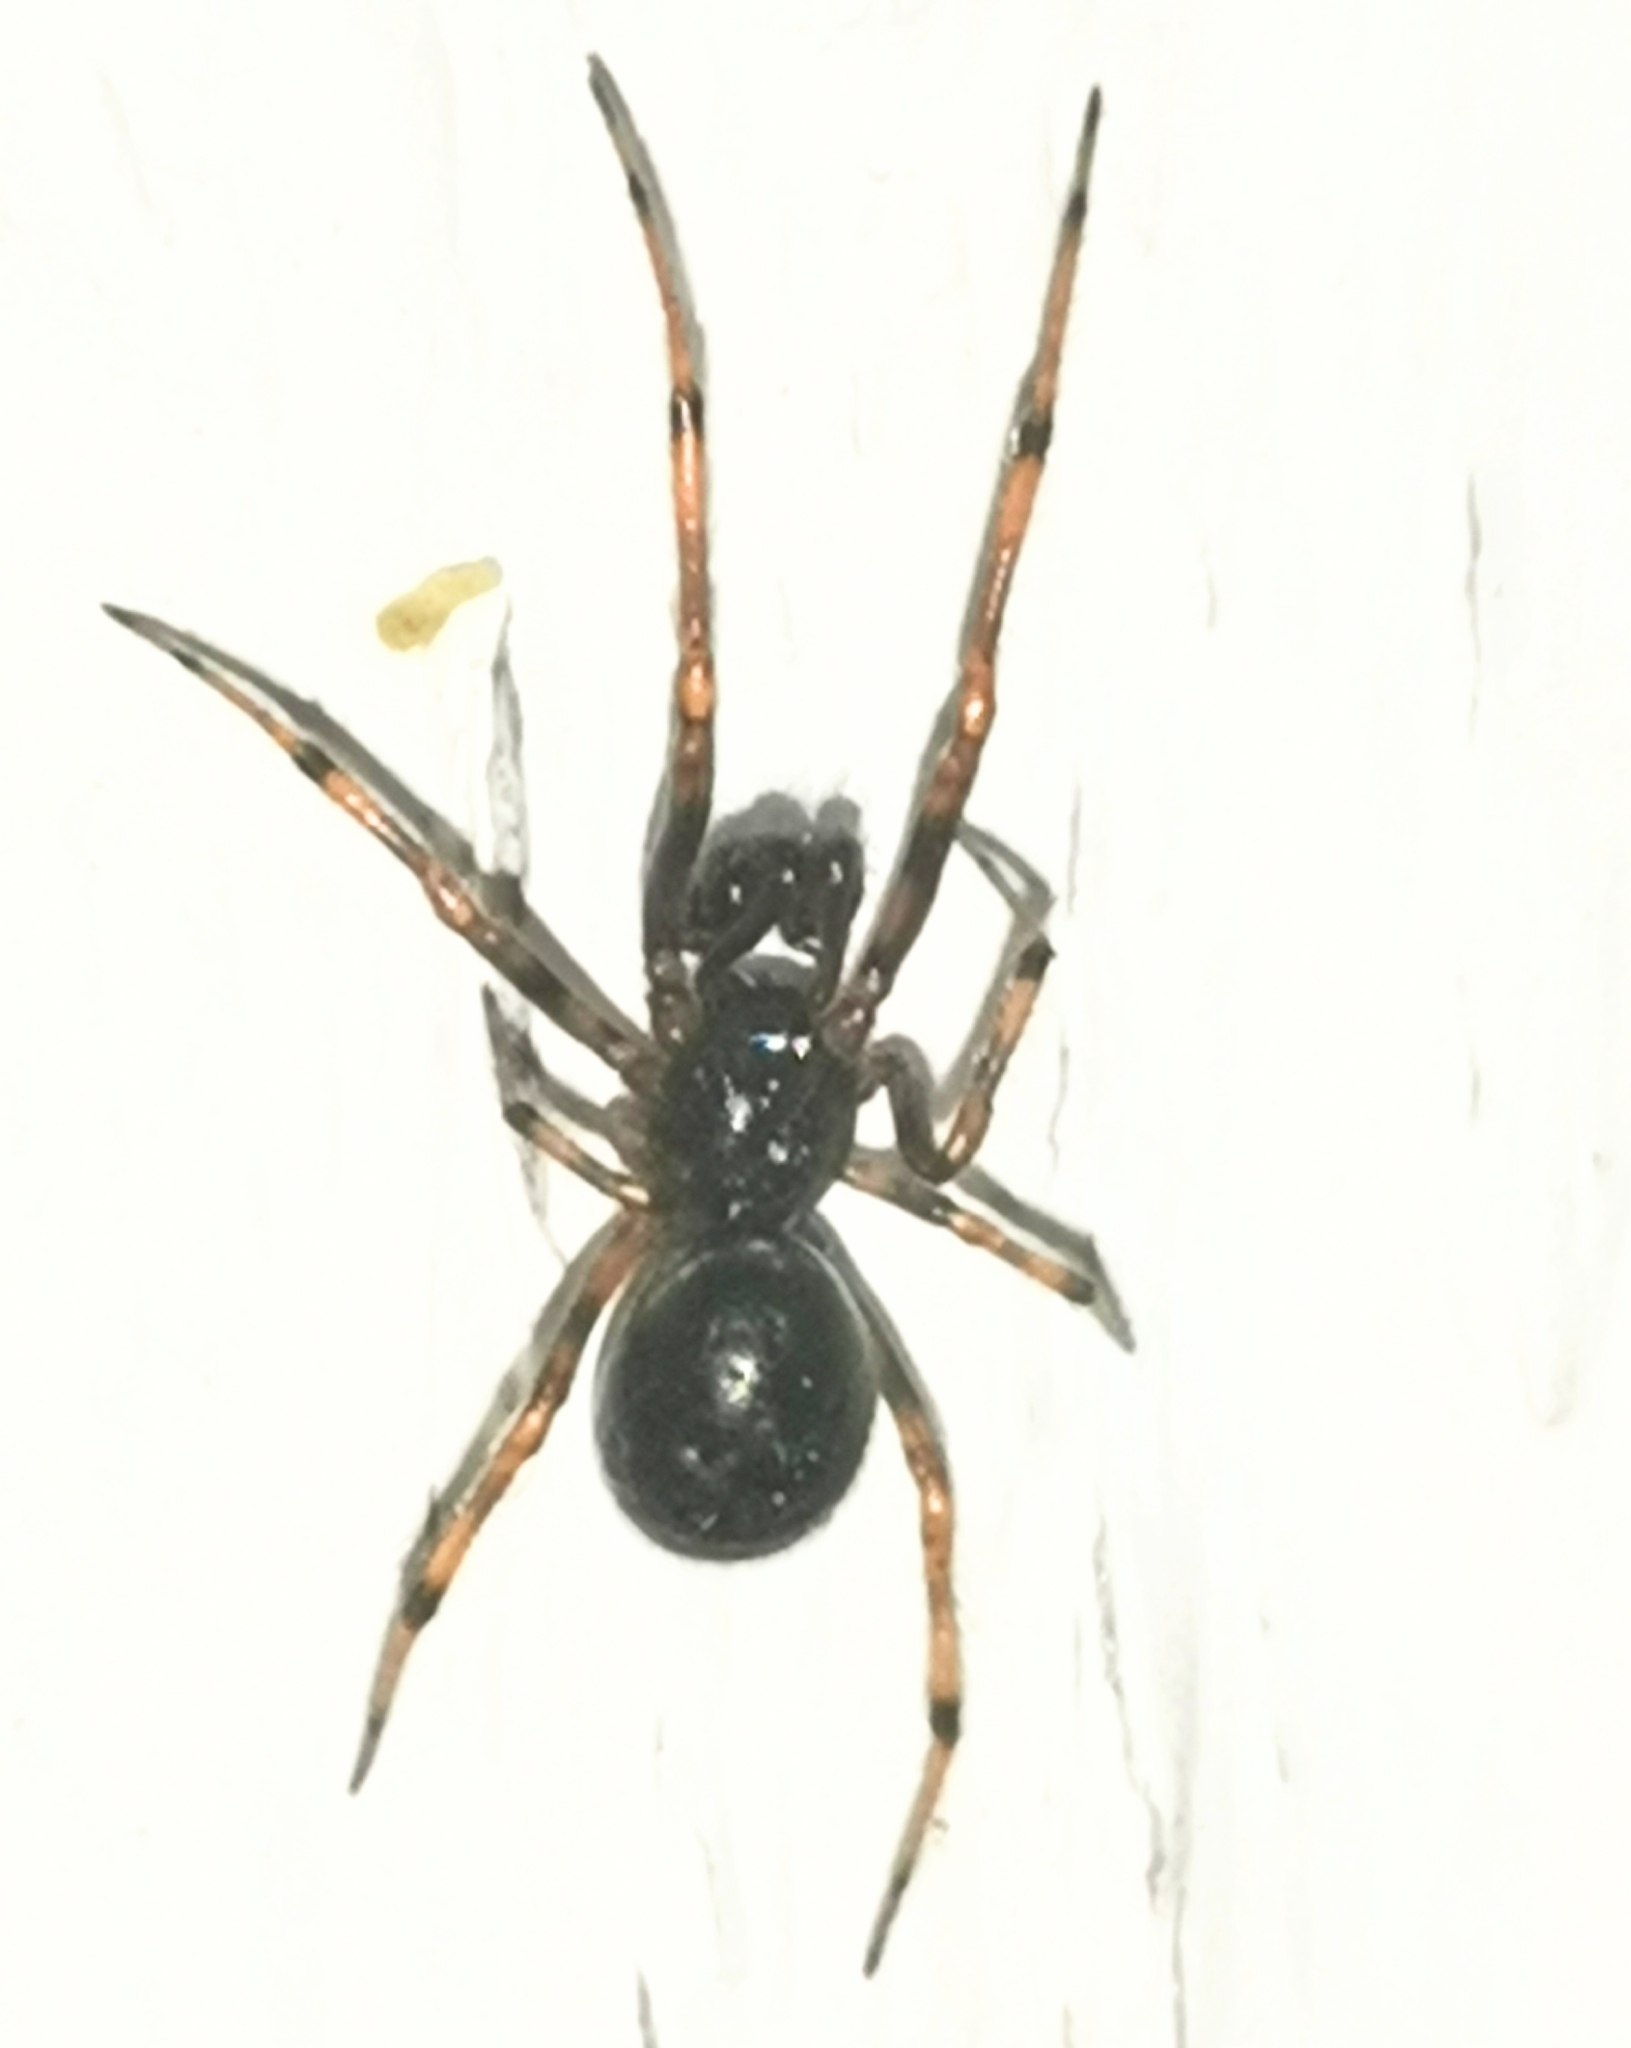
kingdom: Animalia
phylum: Arthropoda
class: Arachnida
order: Araneae
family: Theridiidae
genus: Steatoda
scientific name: Steatoda bipunctata
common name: False widow
